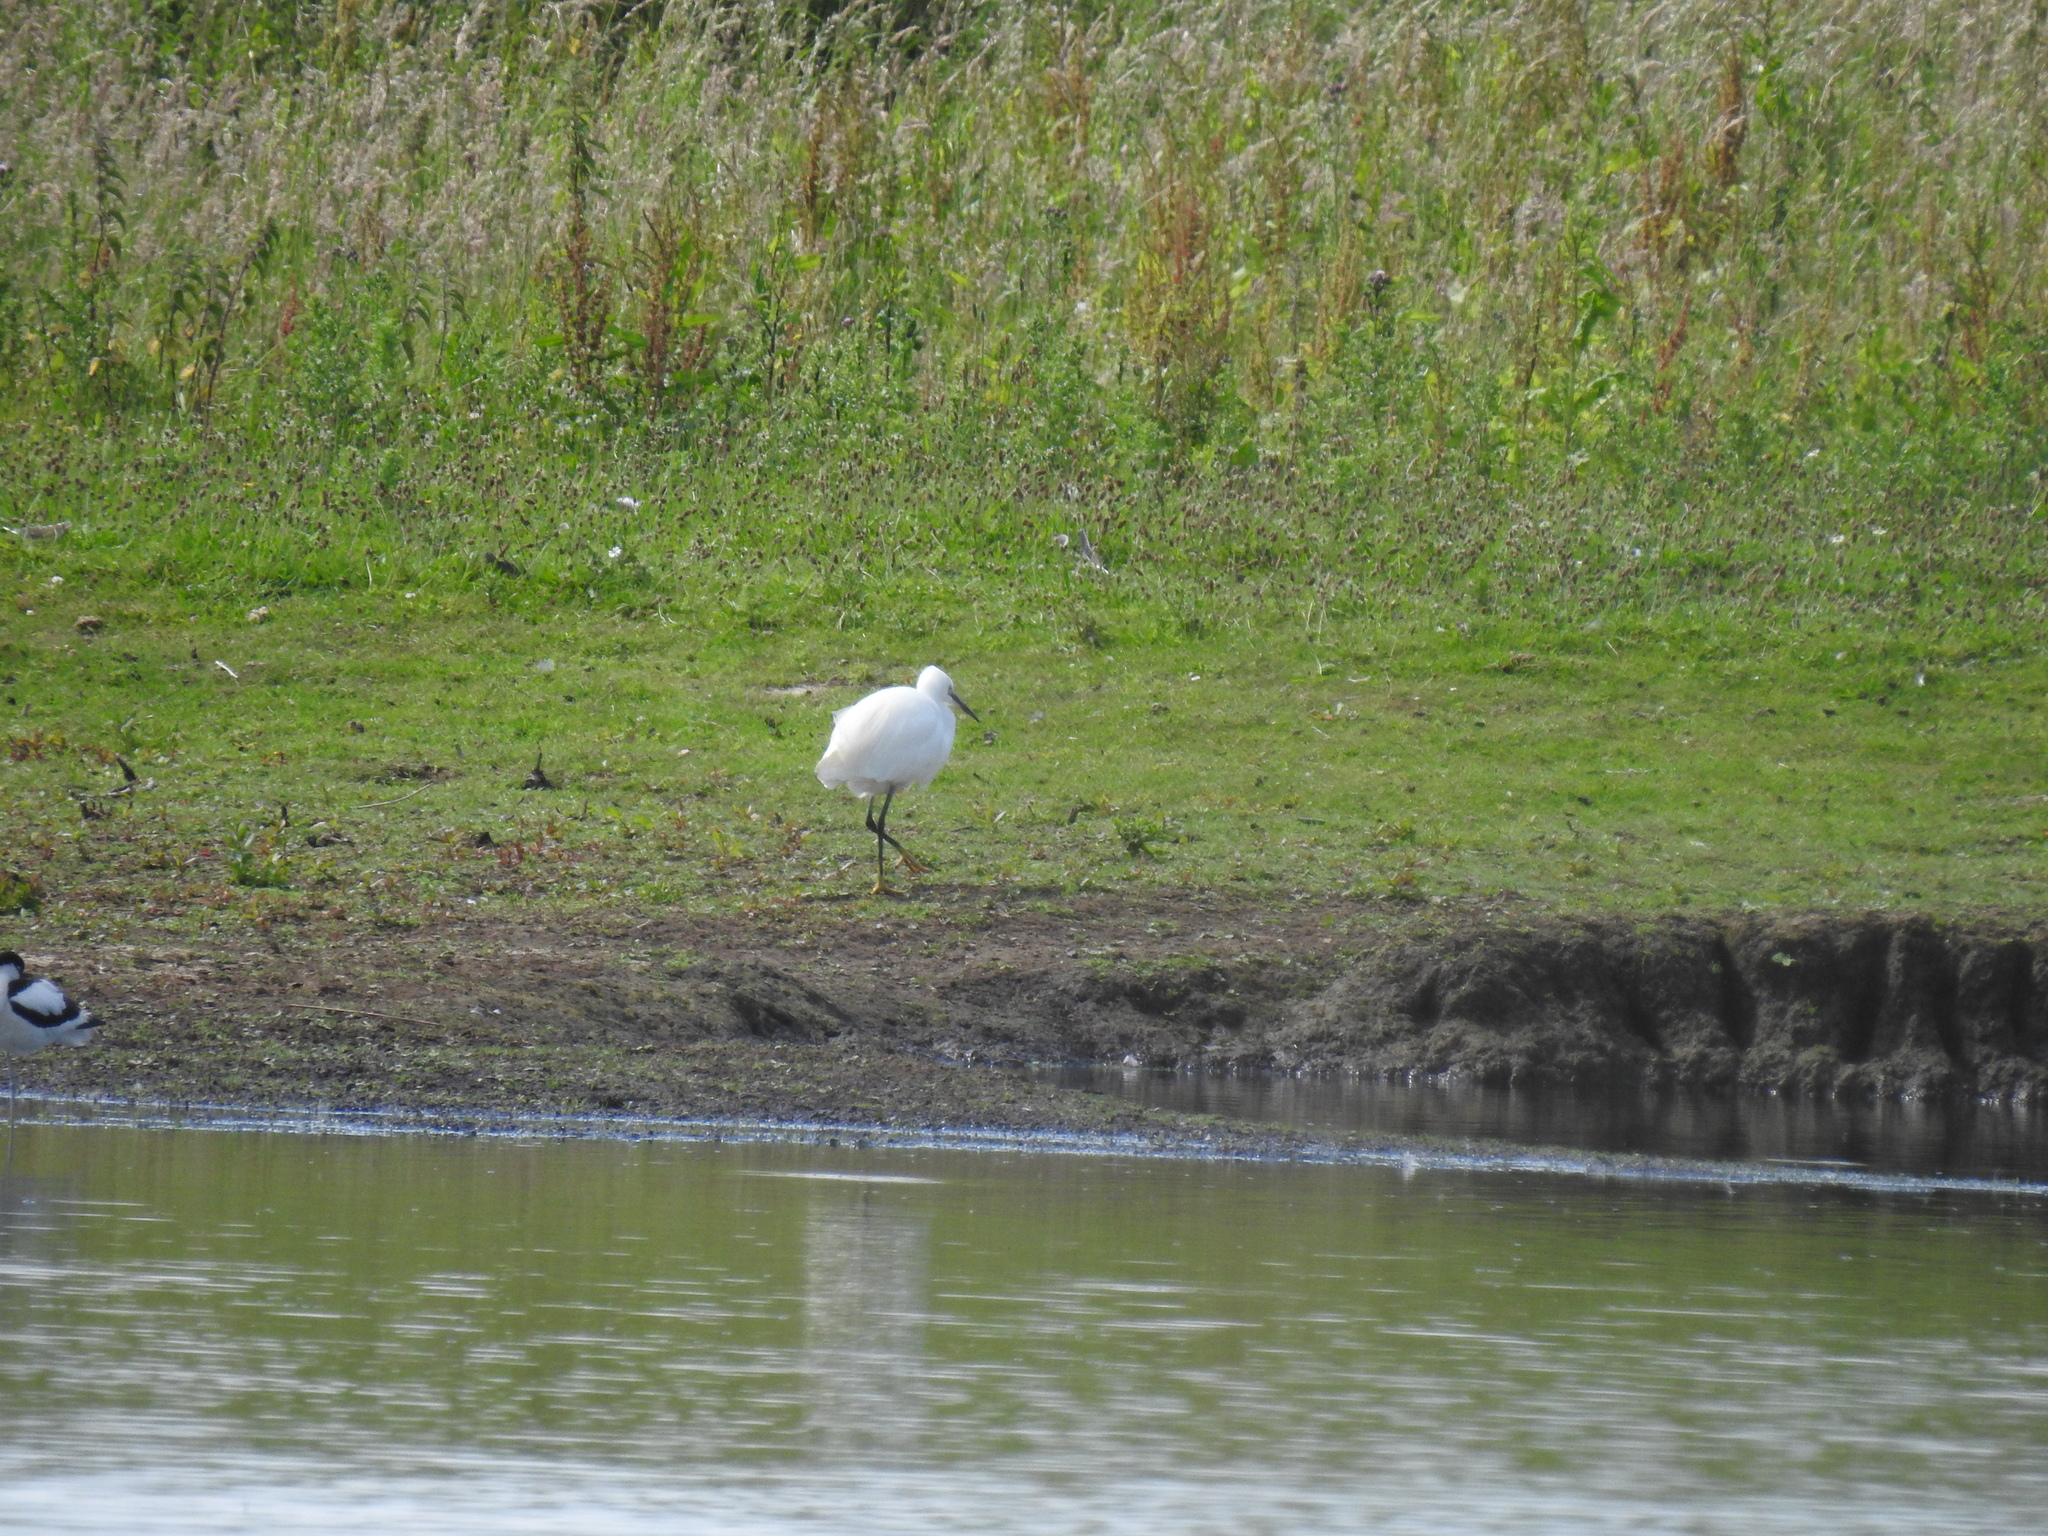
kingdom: Animalia
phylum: Chordata
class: Aves
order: Pelecaniformes
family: Ardeidae
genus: Egretta
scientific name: Egretta garzetta
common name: Little egret
